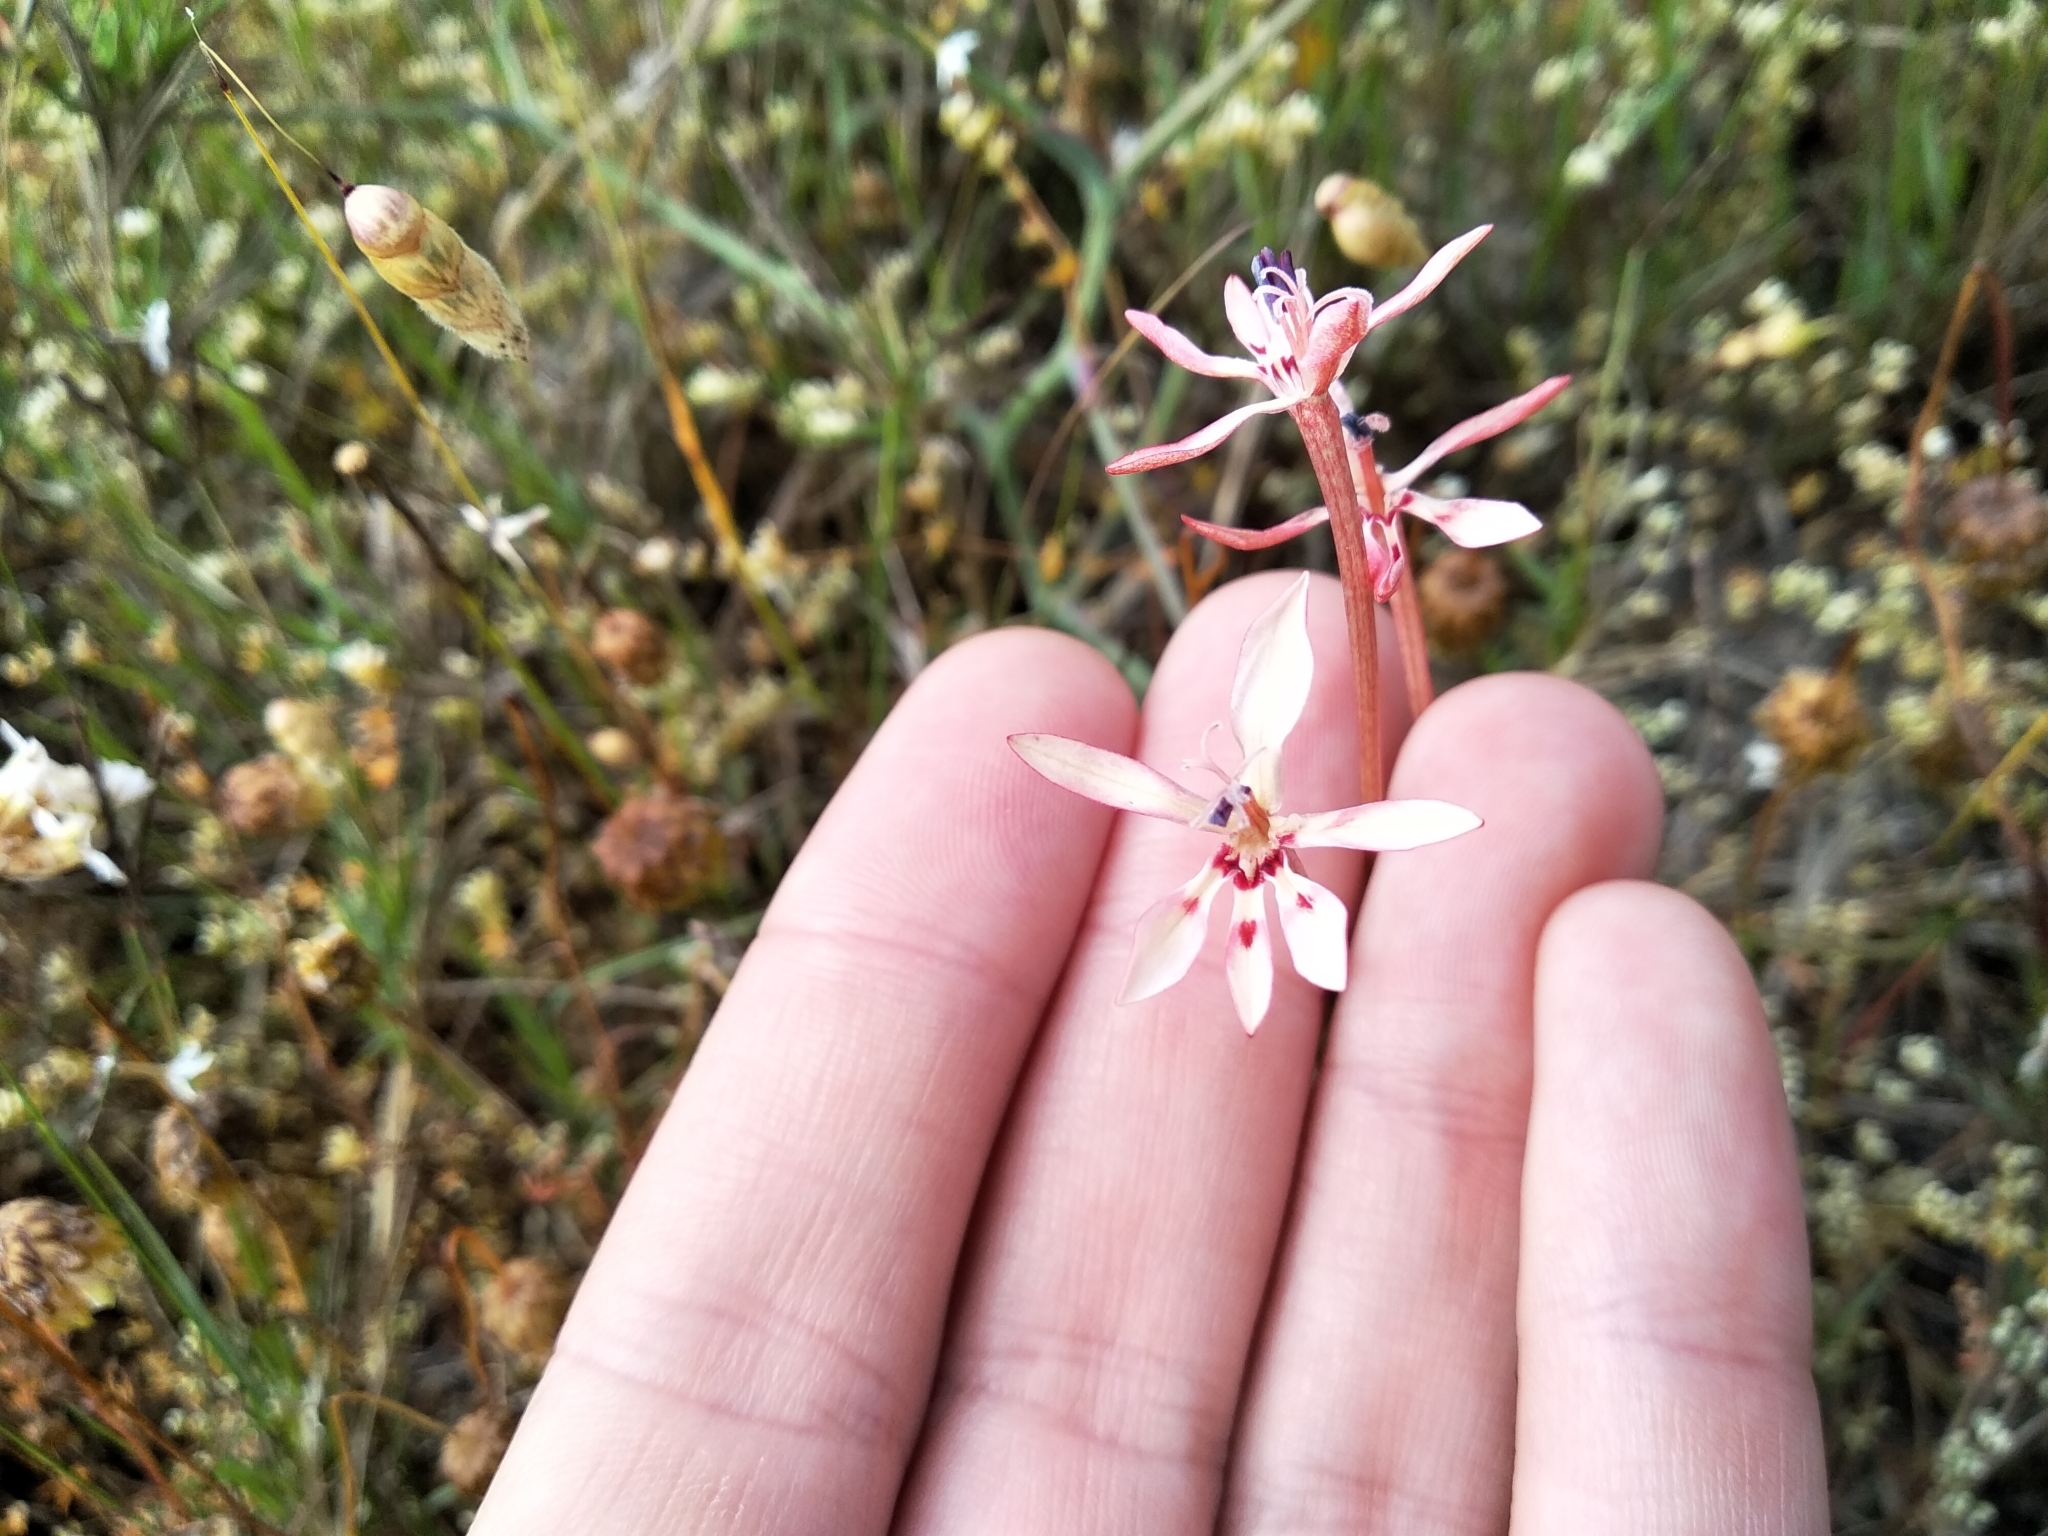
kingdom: Plantae
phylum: Tracheophyta
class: Liliopsida
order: Asparagales
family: Iridaceae
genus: Lapeirousia
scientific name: Lapeirousia anceps
